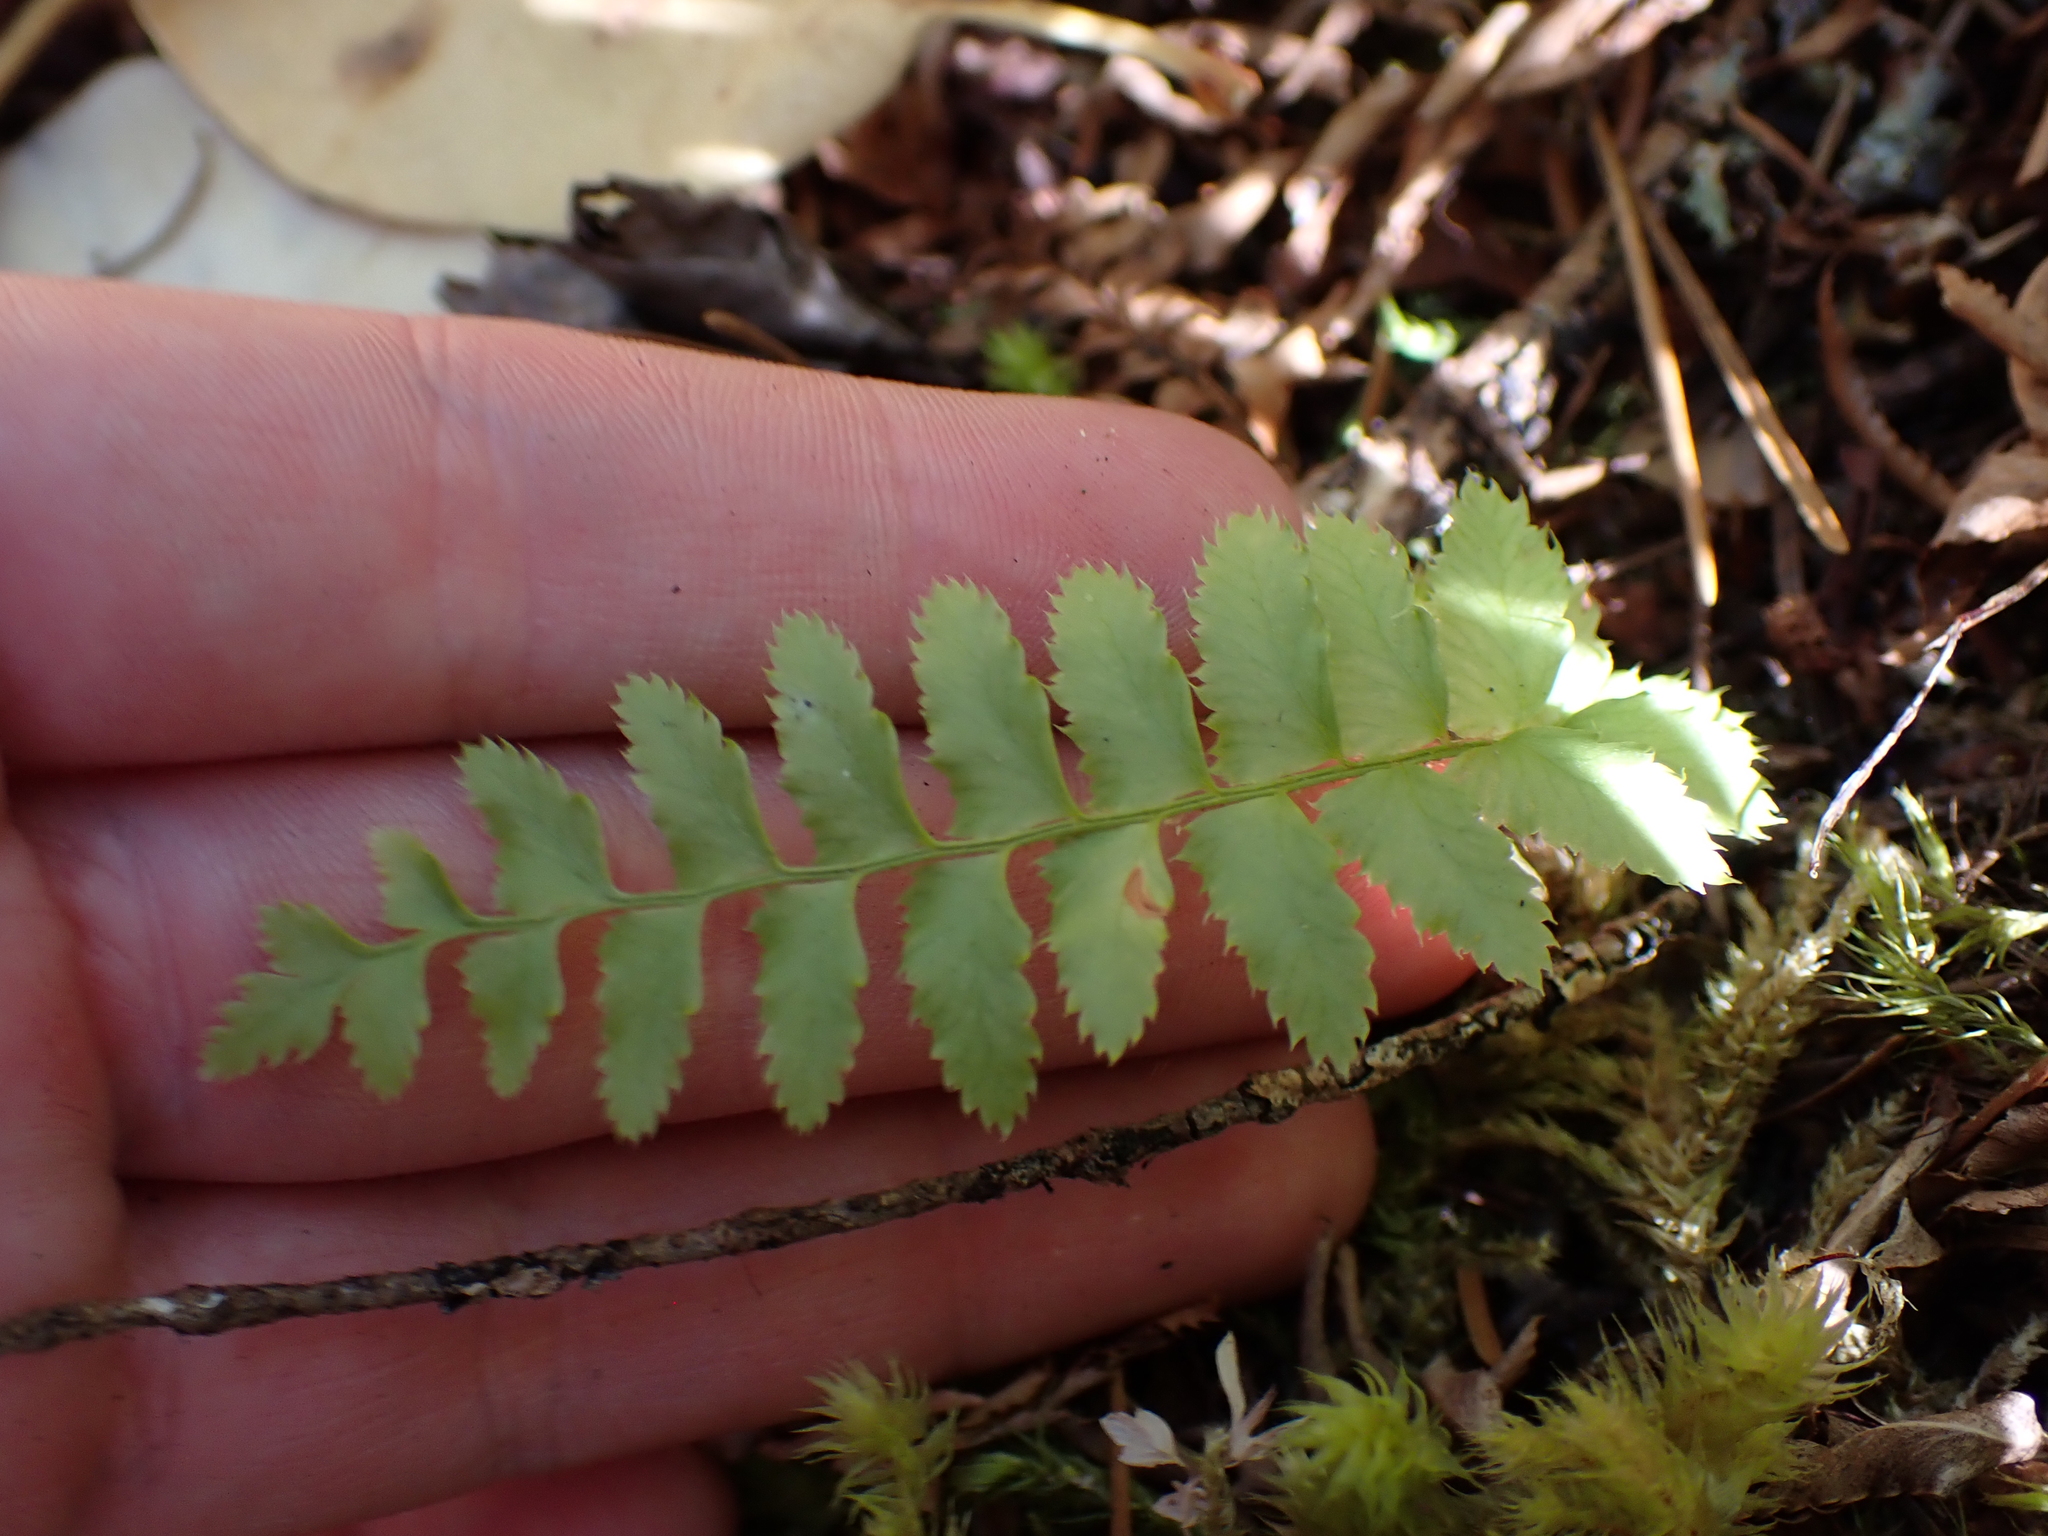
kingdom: Plantae
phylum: Tracheophyta
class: Polypodiopsida
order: Polypodiales
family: Dryopteridaceae
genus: Polystichum
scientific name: Polystichum munitum
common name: Western sword-fern
